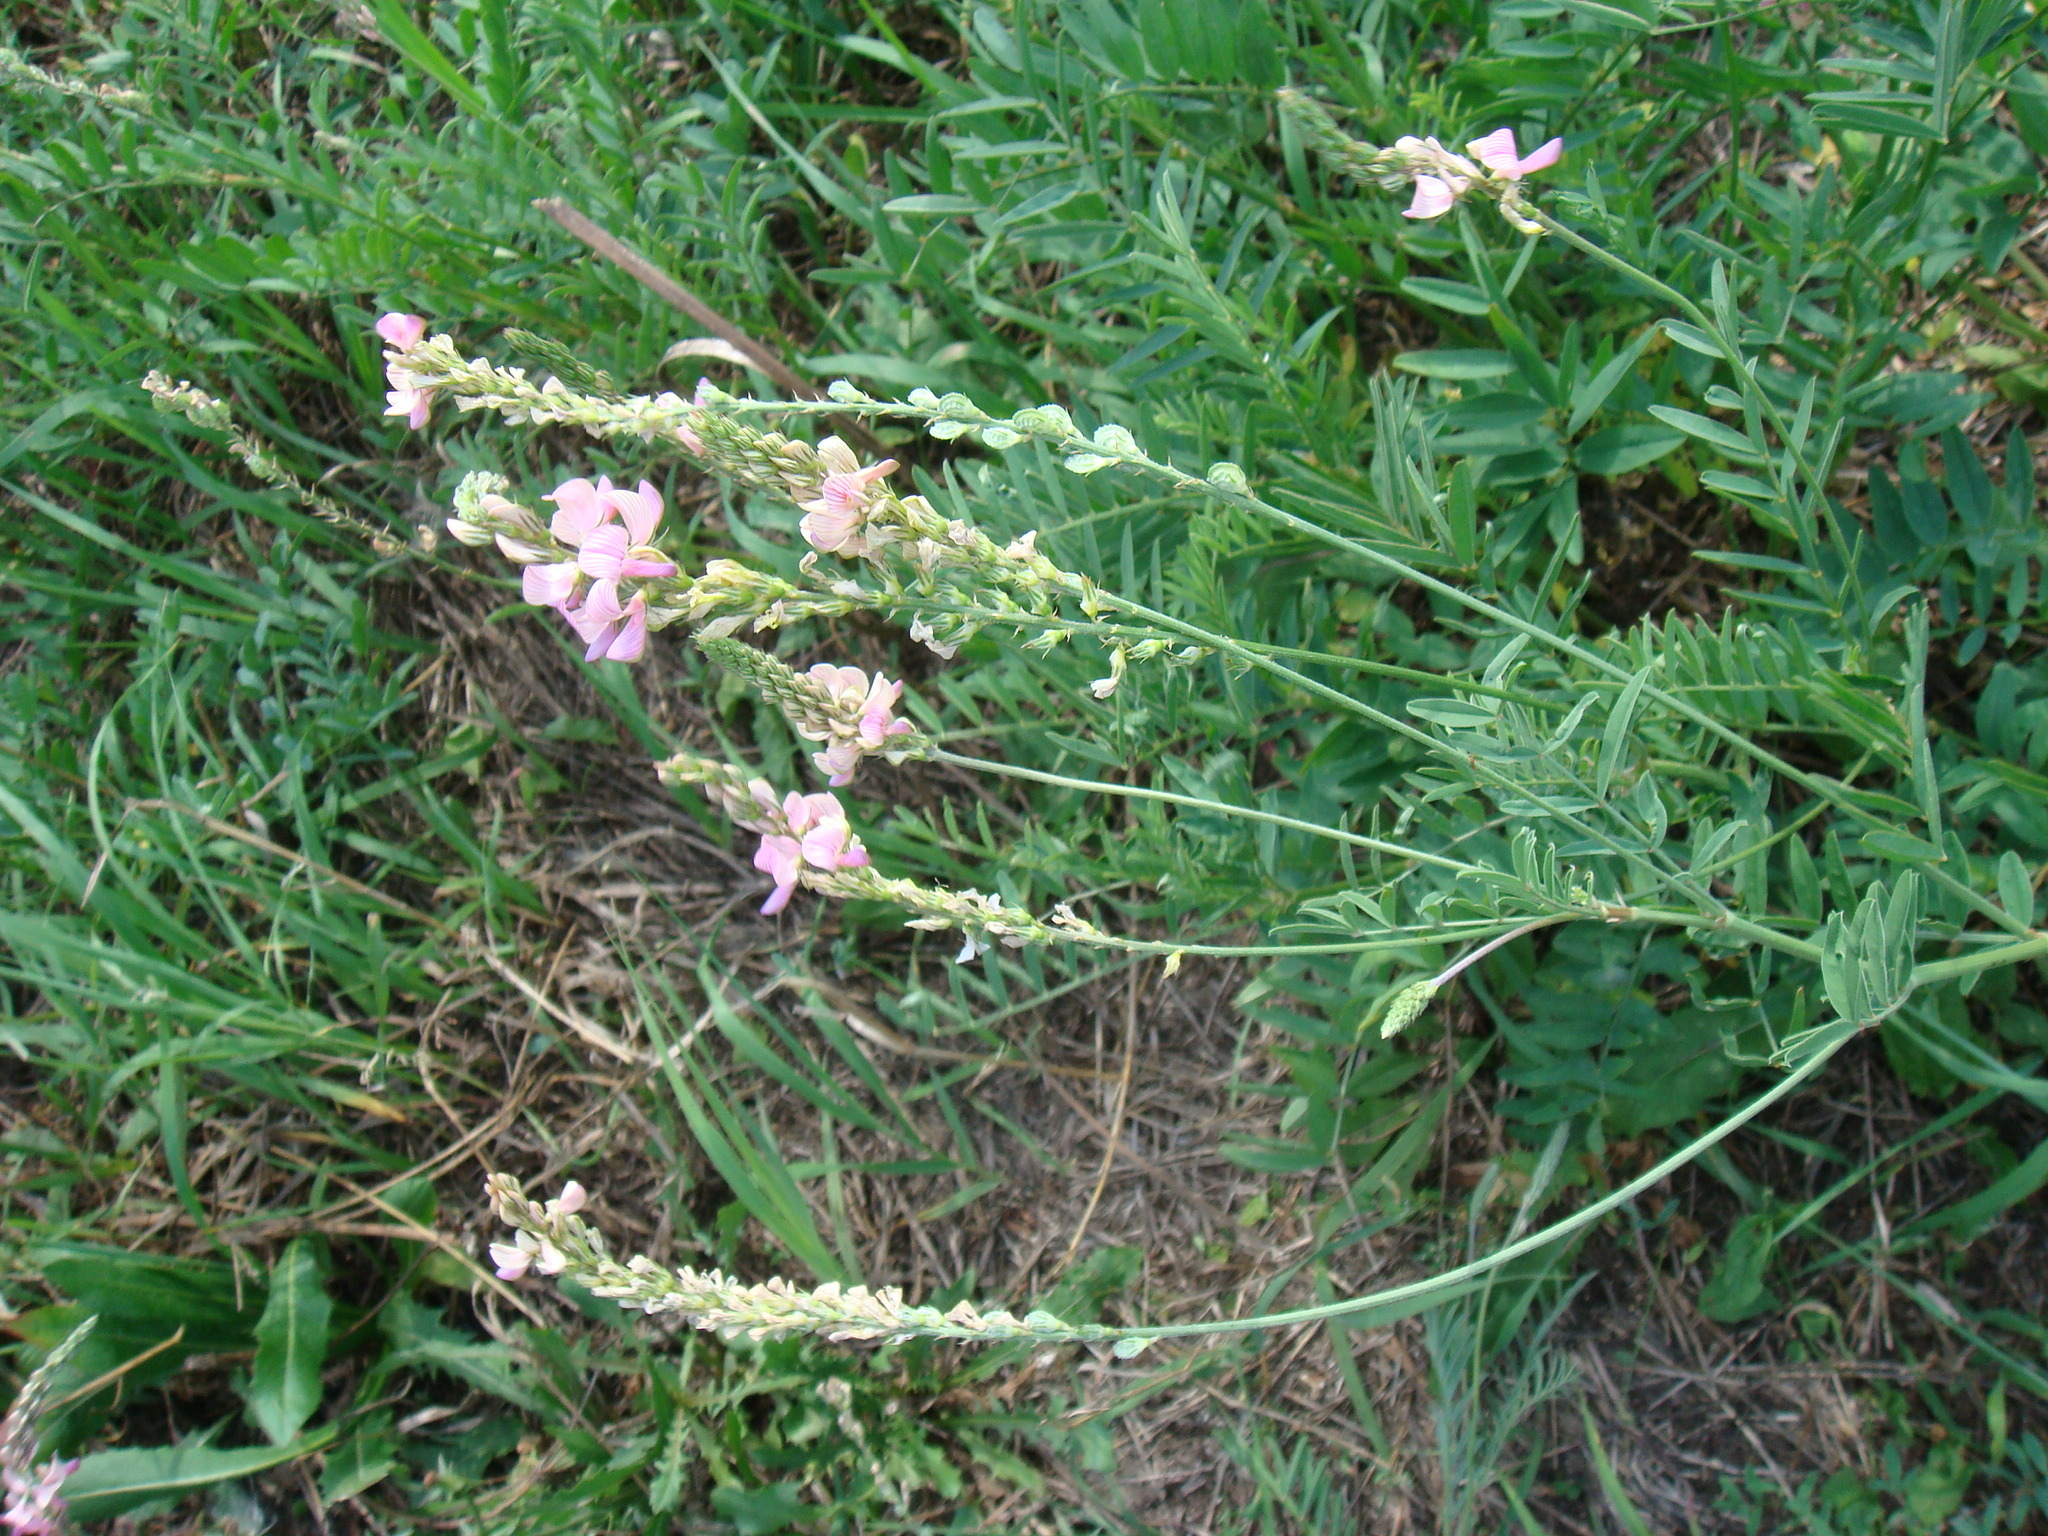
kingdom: Plantae
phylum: Tracheophyta
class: Magnoliopsida
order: Fabales
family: Fabaceae
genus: Onobrychis
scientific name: Onobrychis arenaria
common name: Sand esparcet
